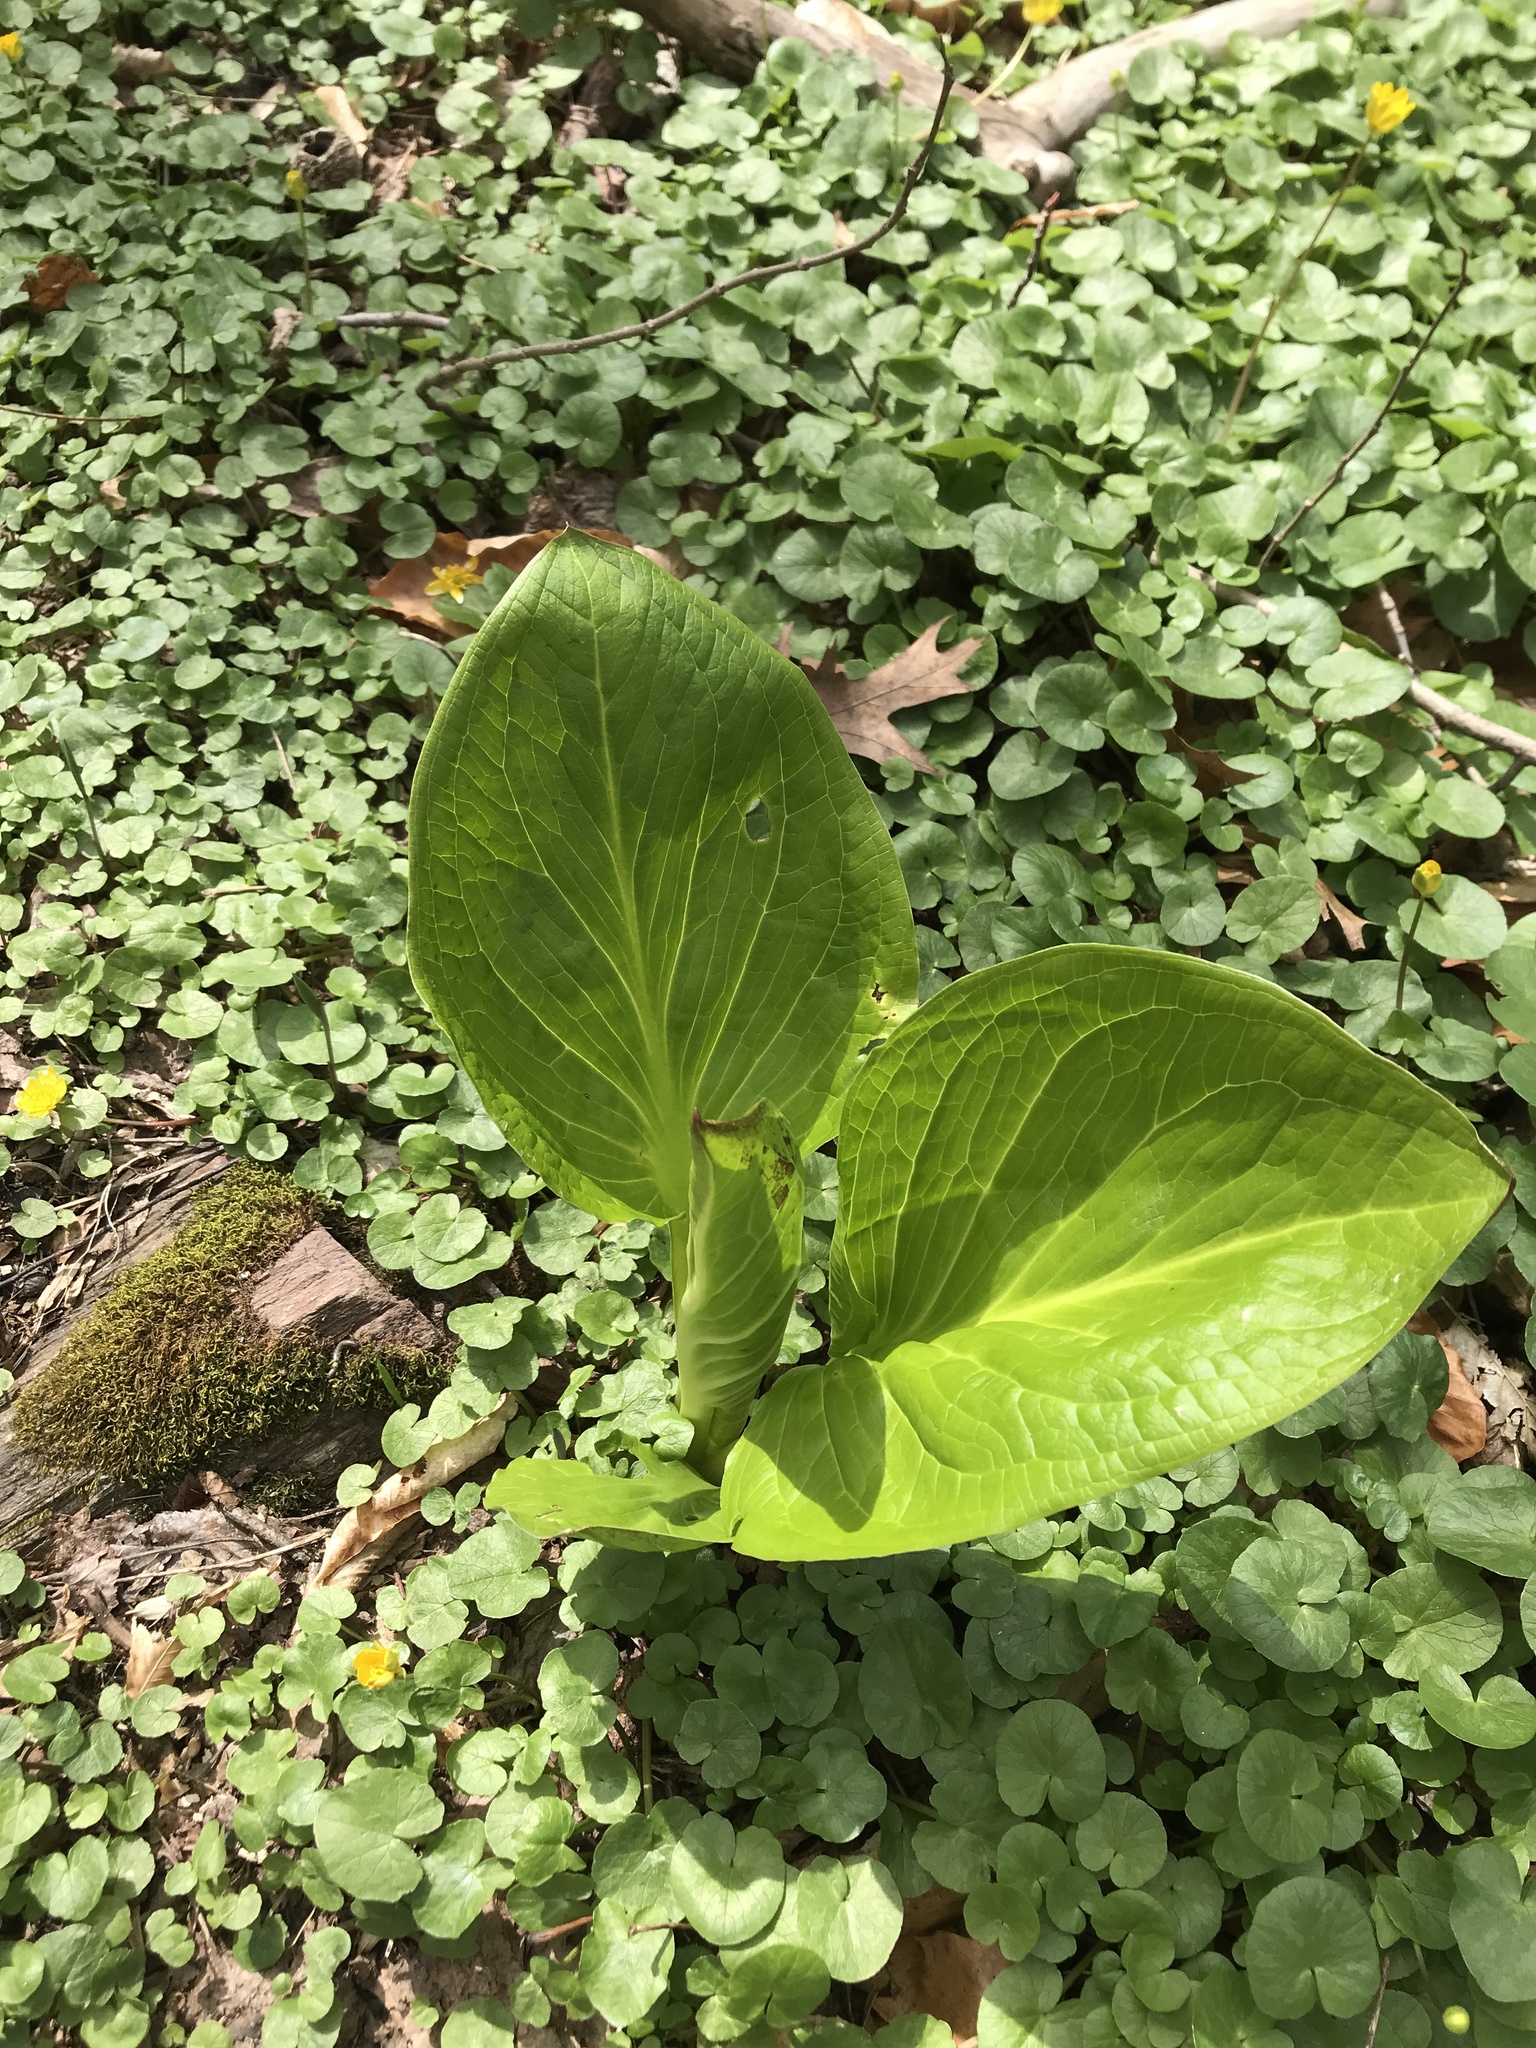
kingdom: Plantae
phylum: Tracheophyta
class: Liliopsida
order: Alismatales
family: Araceae
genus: Symplocarpus
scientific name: Symplocarpus foetidus
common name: Eastern skunk cabbage
